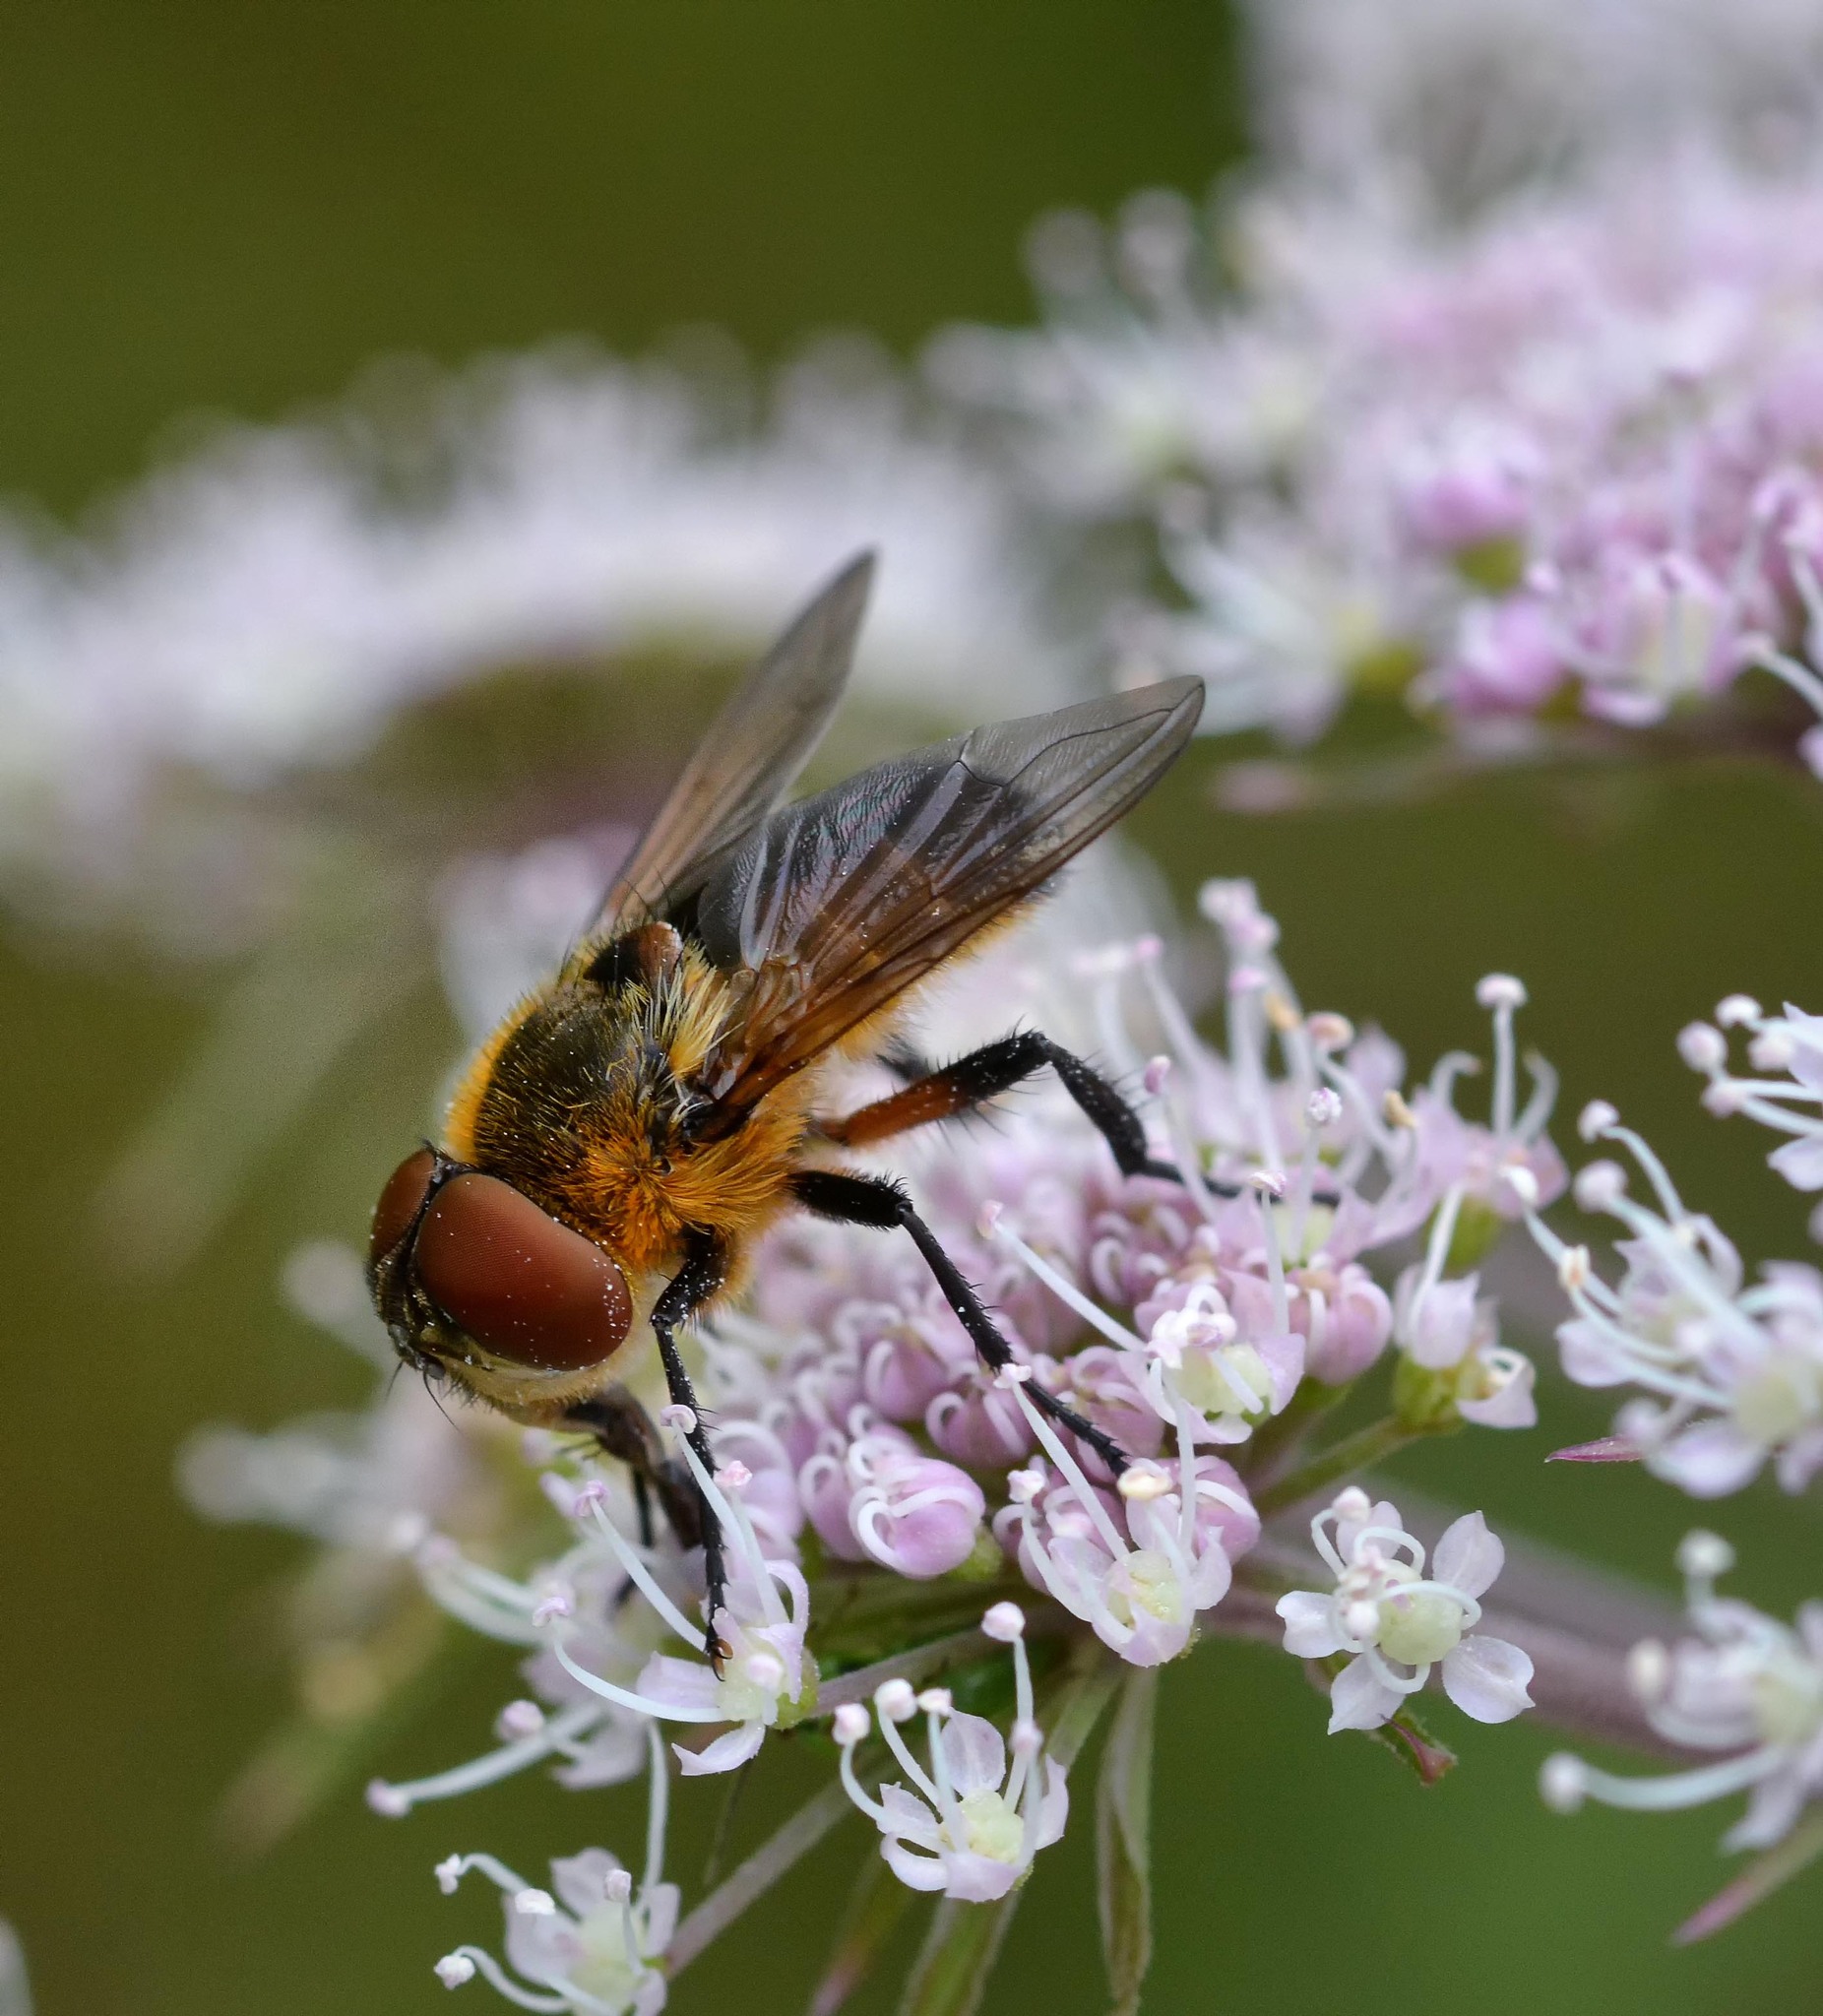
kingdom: Animalia
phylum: Arthropoda
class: Insecta
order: Diptera
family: Tachinidae
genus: Phasia
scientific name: Phasia hemiptera
